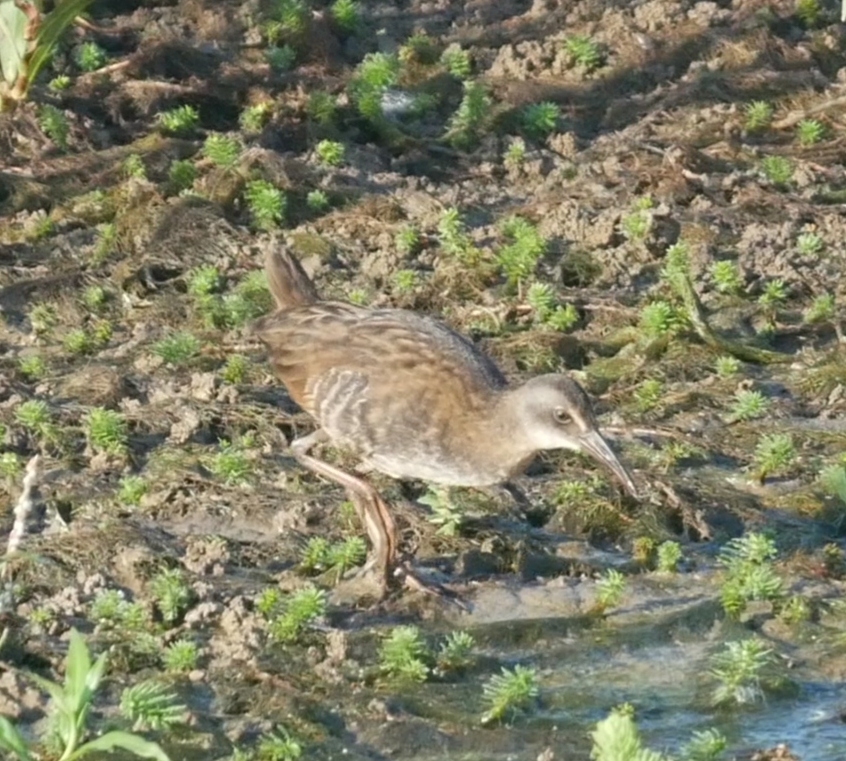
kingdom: Animalia
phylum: Chordata
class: Aves
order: Gruiformes
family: Rallidae
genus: Rallus
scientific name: Rallus limicola
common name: Virginia rail
